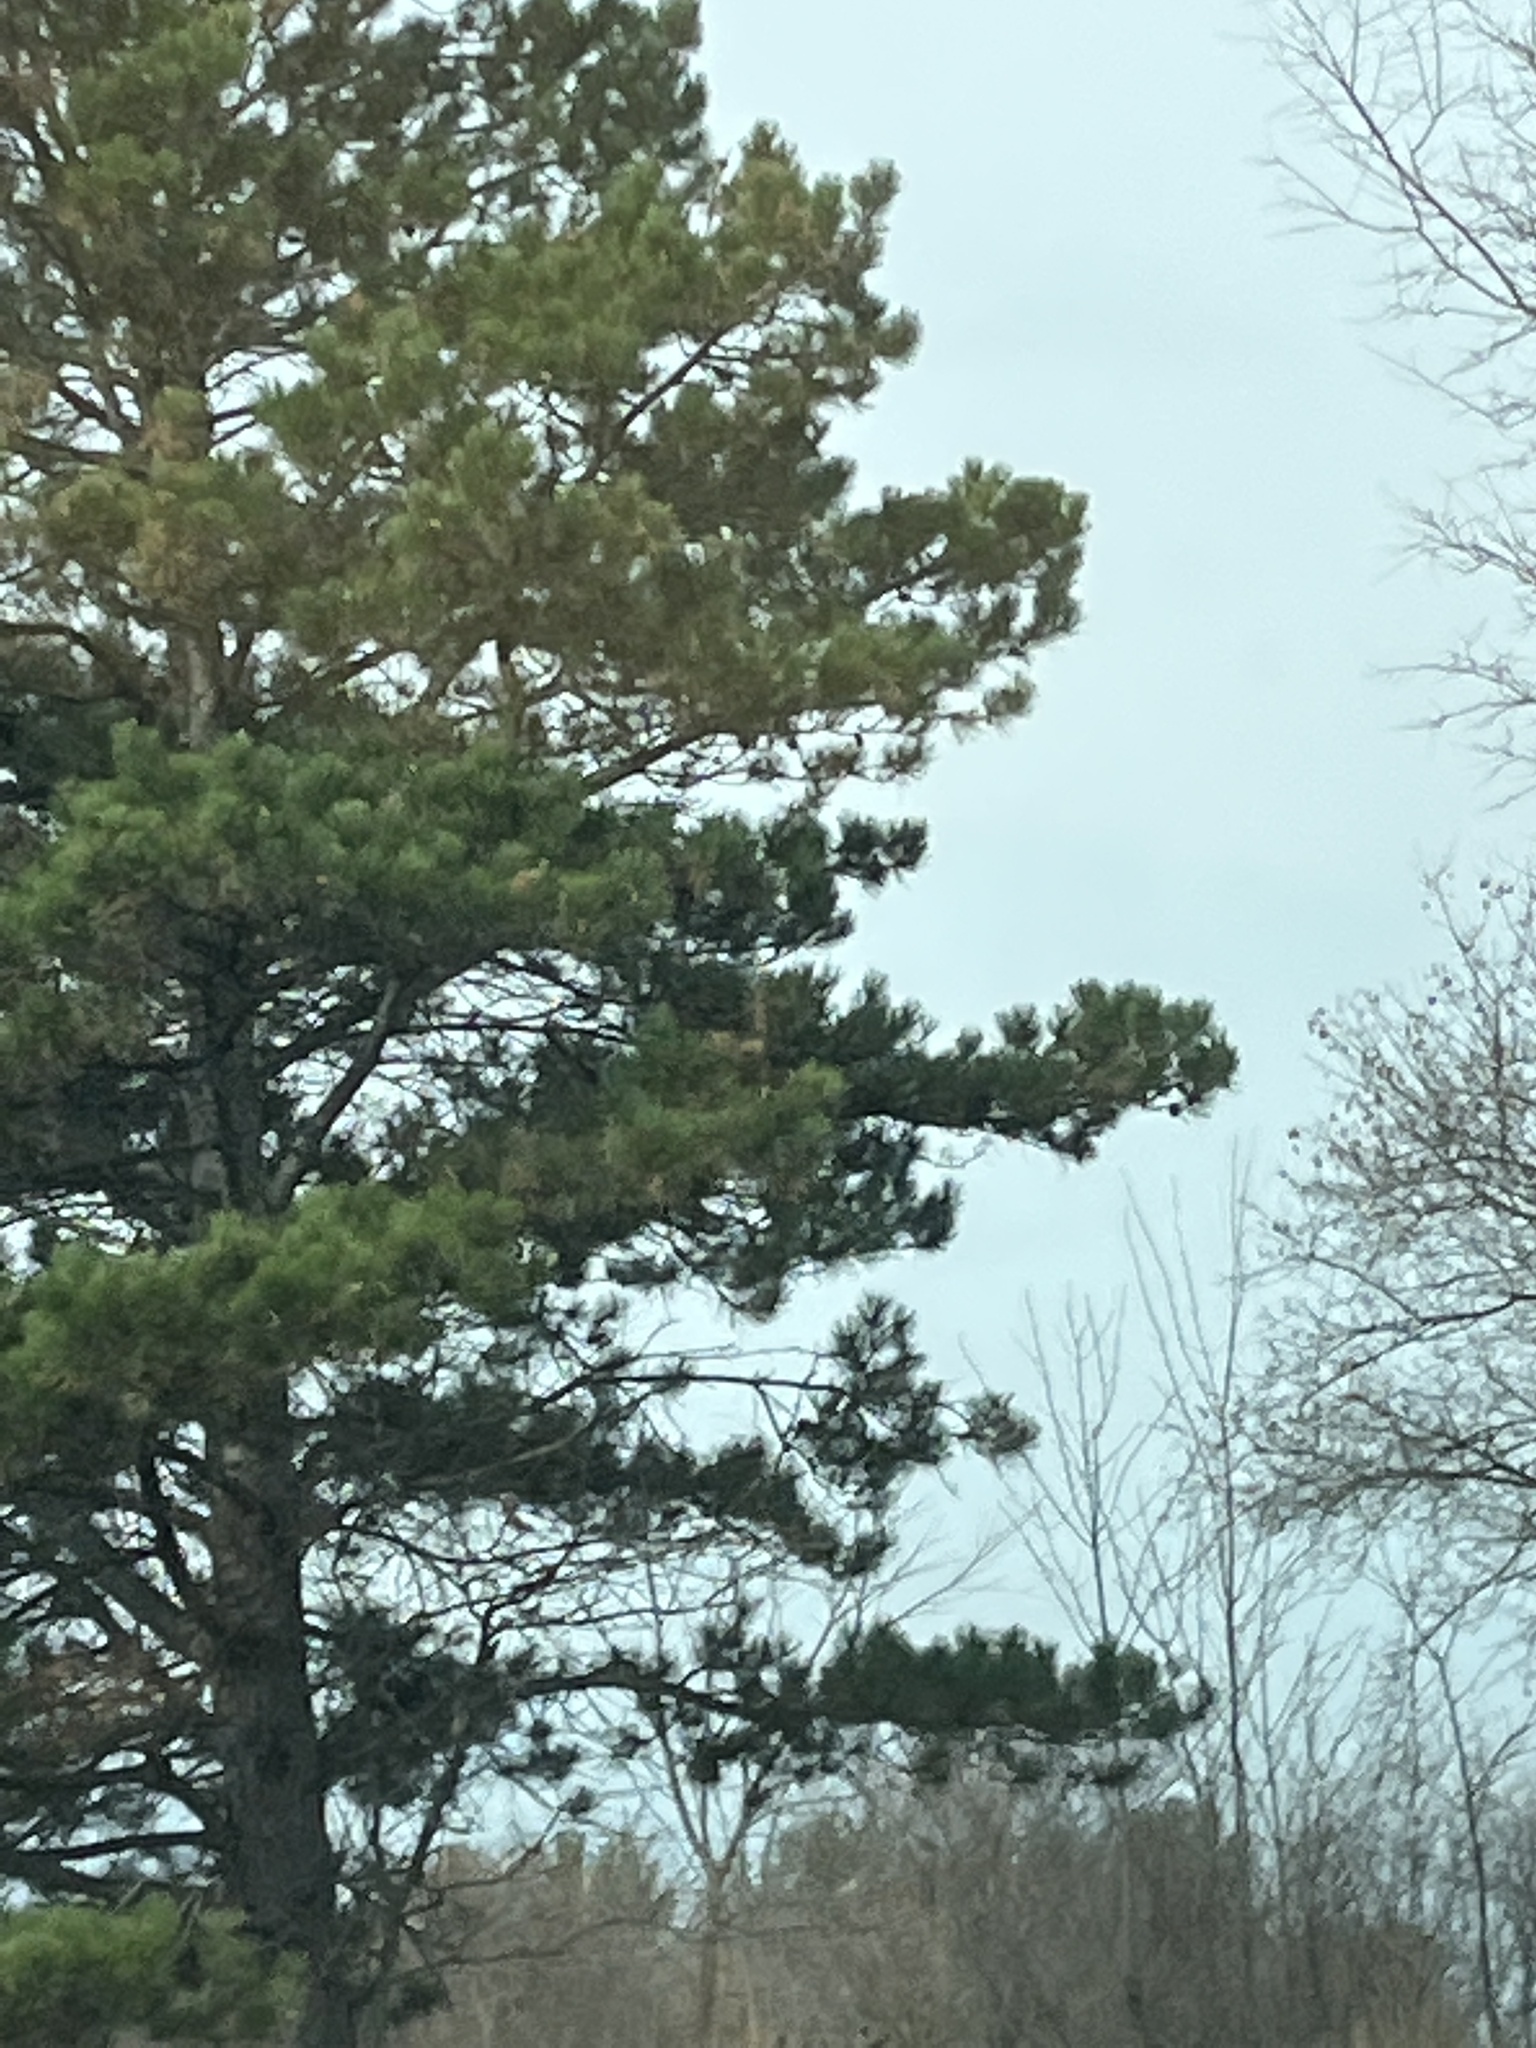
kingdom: Plantae
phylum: Tracheophyta
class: Pinopsida
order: Pinales
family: Pinaceae
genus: Pinus
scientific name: Pinus strobus
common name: Weymouth pine
